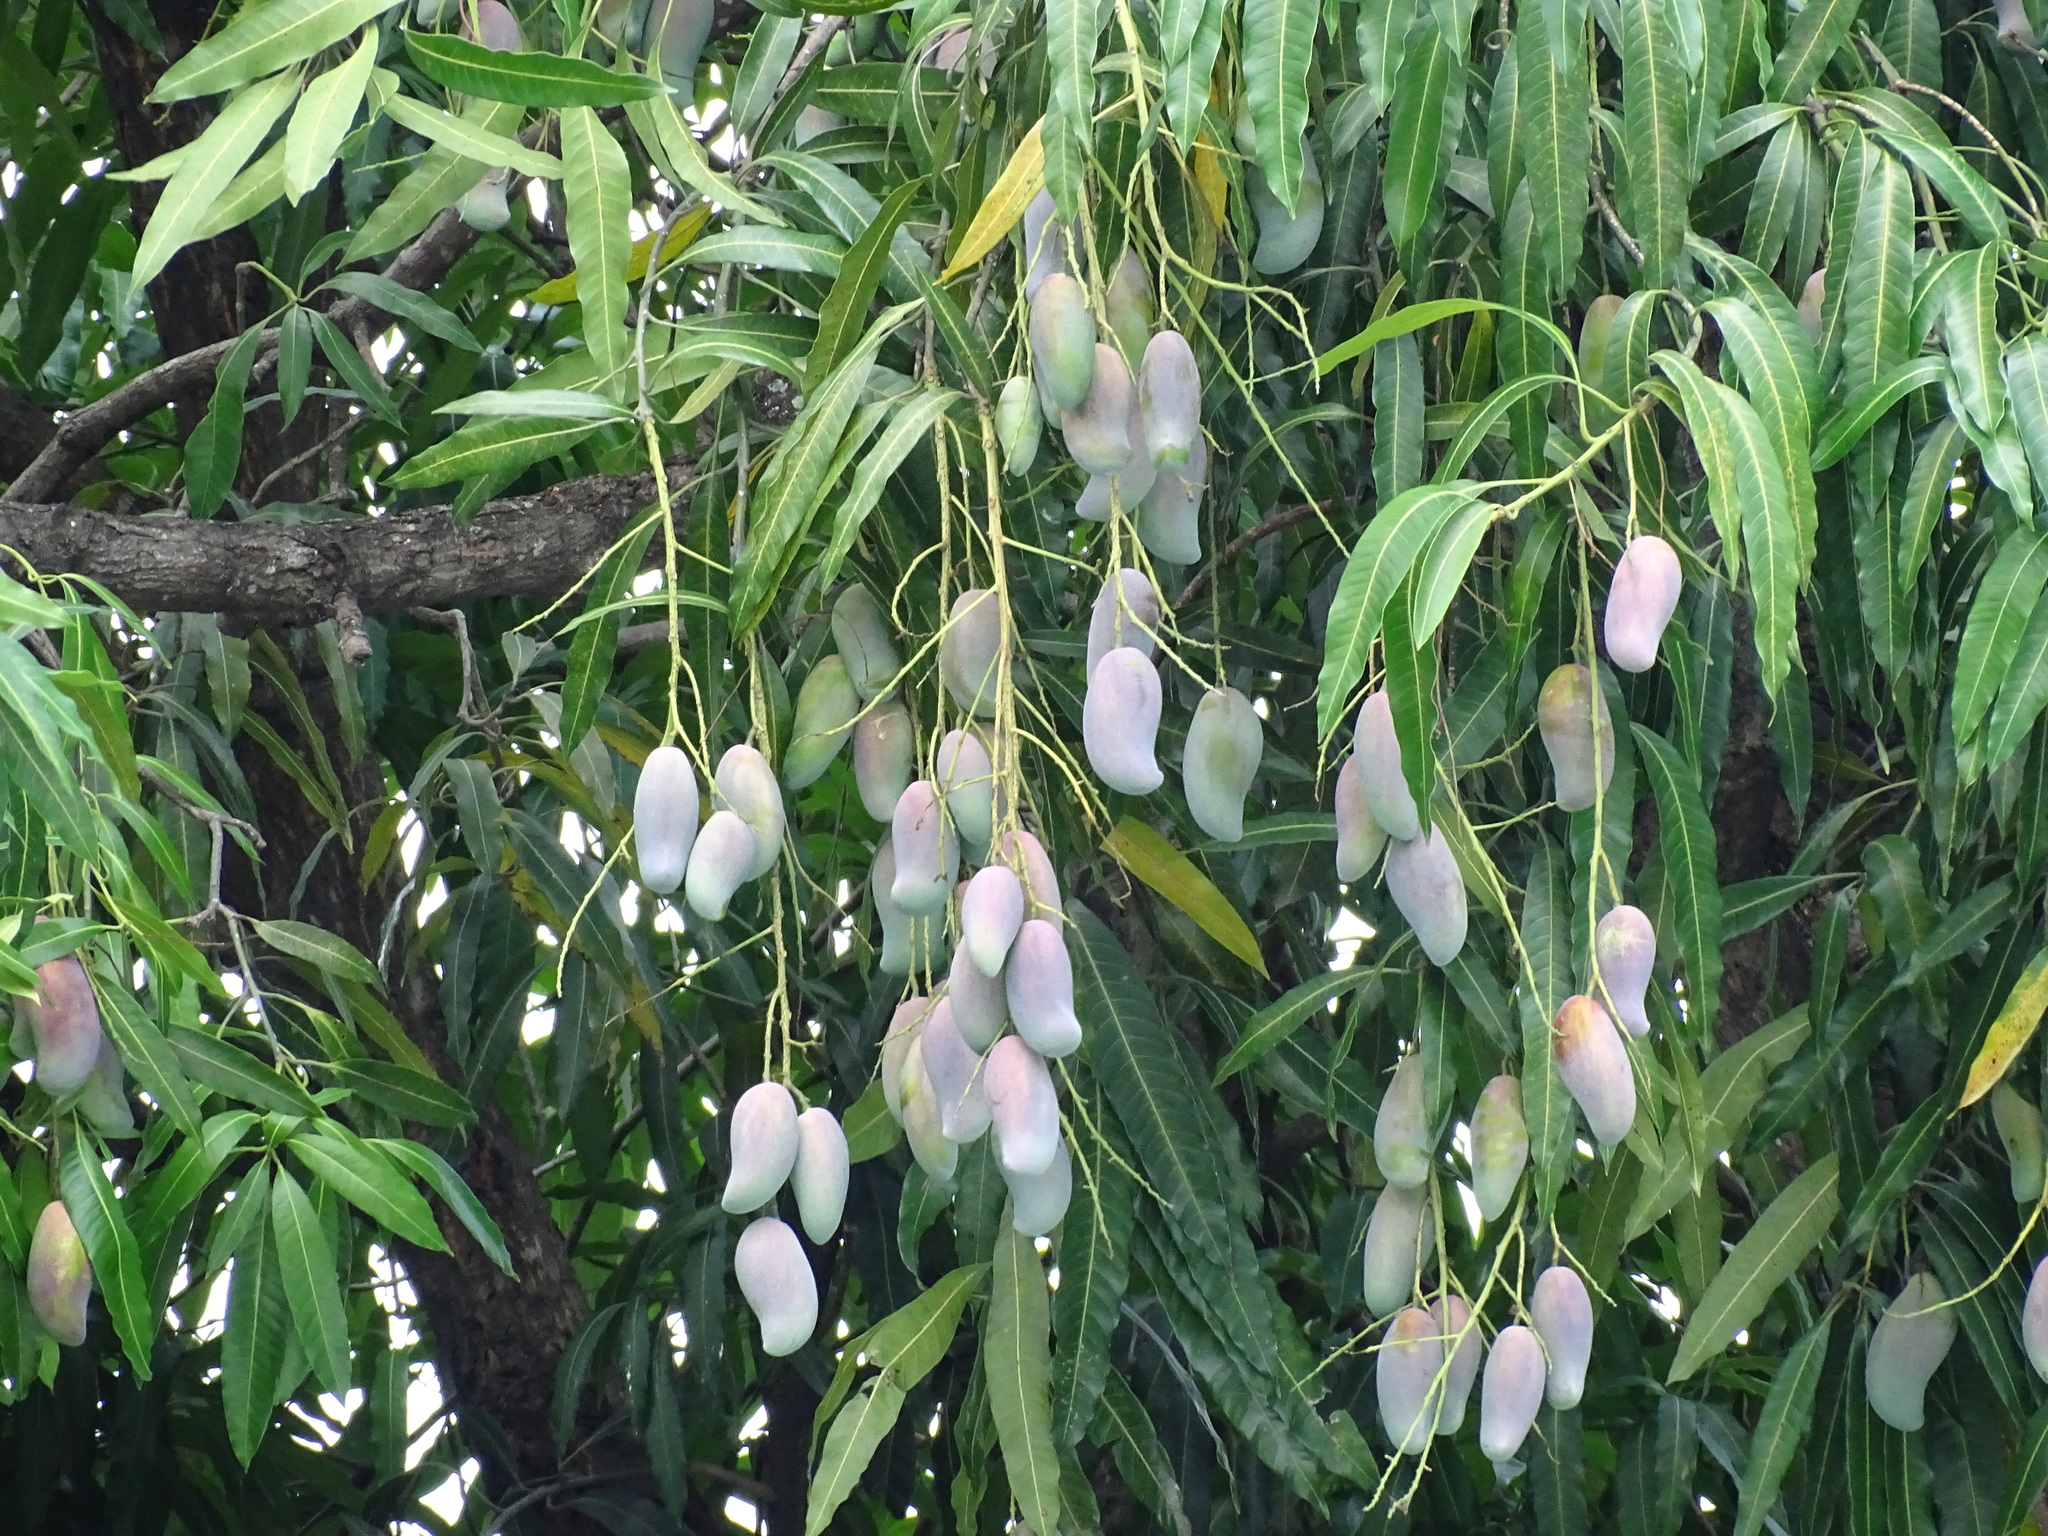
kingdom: Plantae
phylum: Tracheophyta
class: Magnoliopsida
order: Sapindales
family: Anacardiaceae
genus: Mangifera
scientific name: Mangifera indica
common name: Mango
